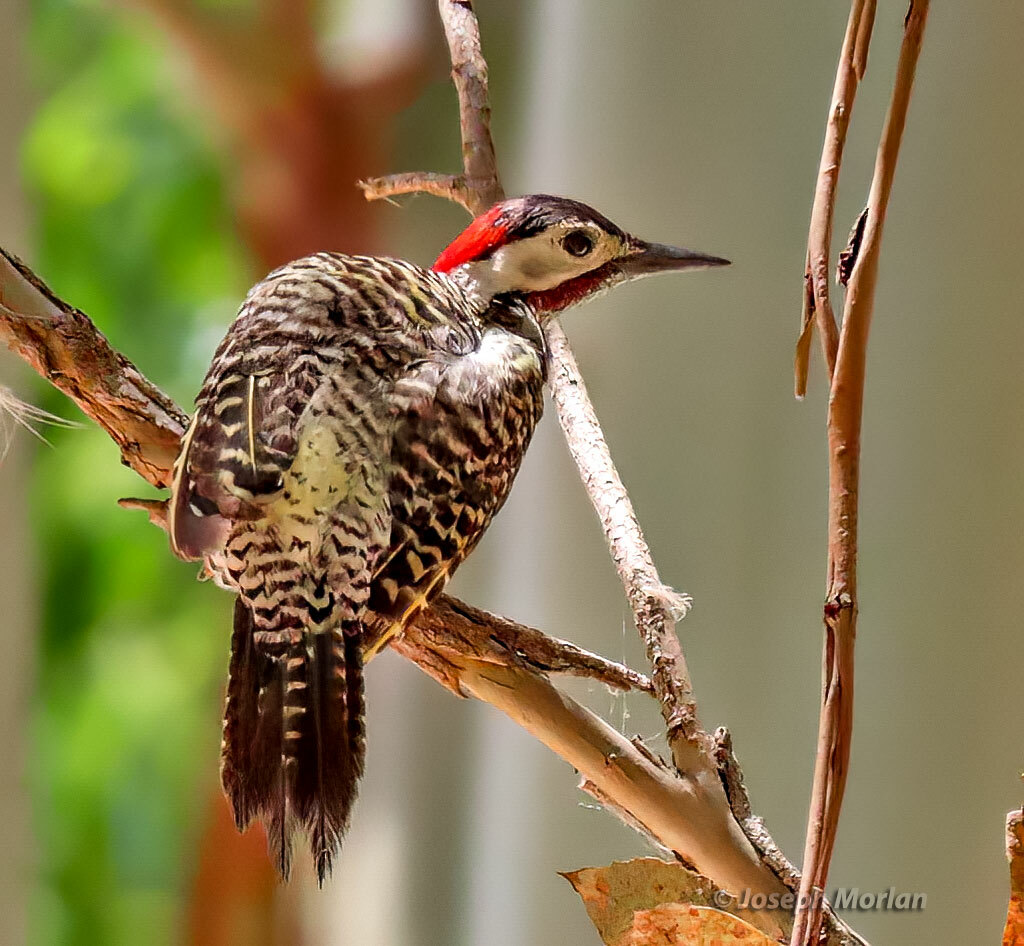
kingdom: Animalia
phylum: Chordata
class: Aves
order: Piciformes
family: Picidae
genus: Colaptes
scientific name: Colaptes melanochloros
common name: Green-barred woodpecker
